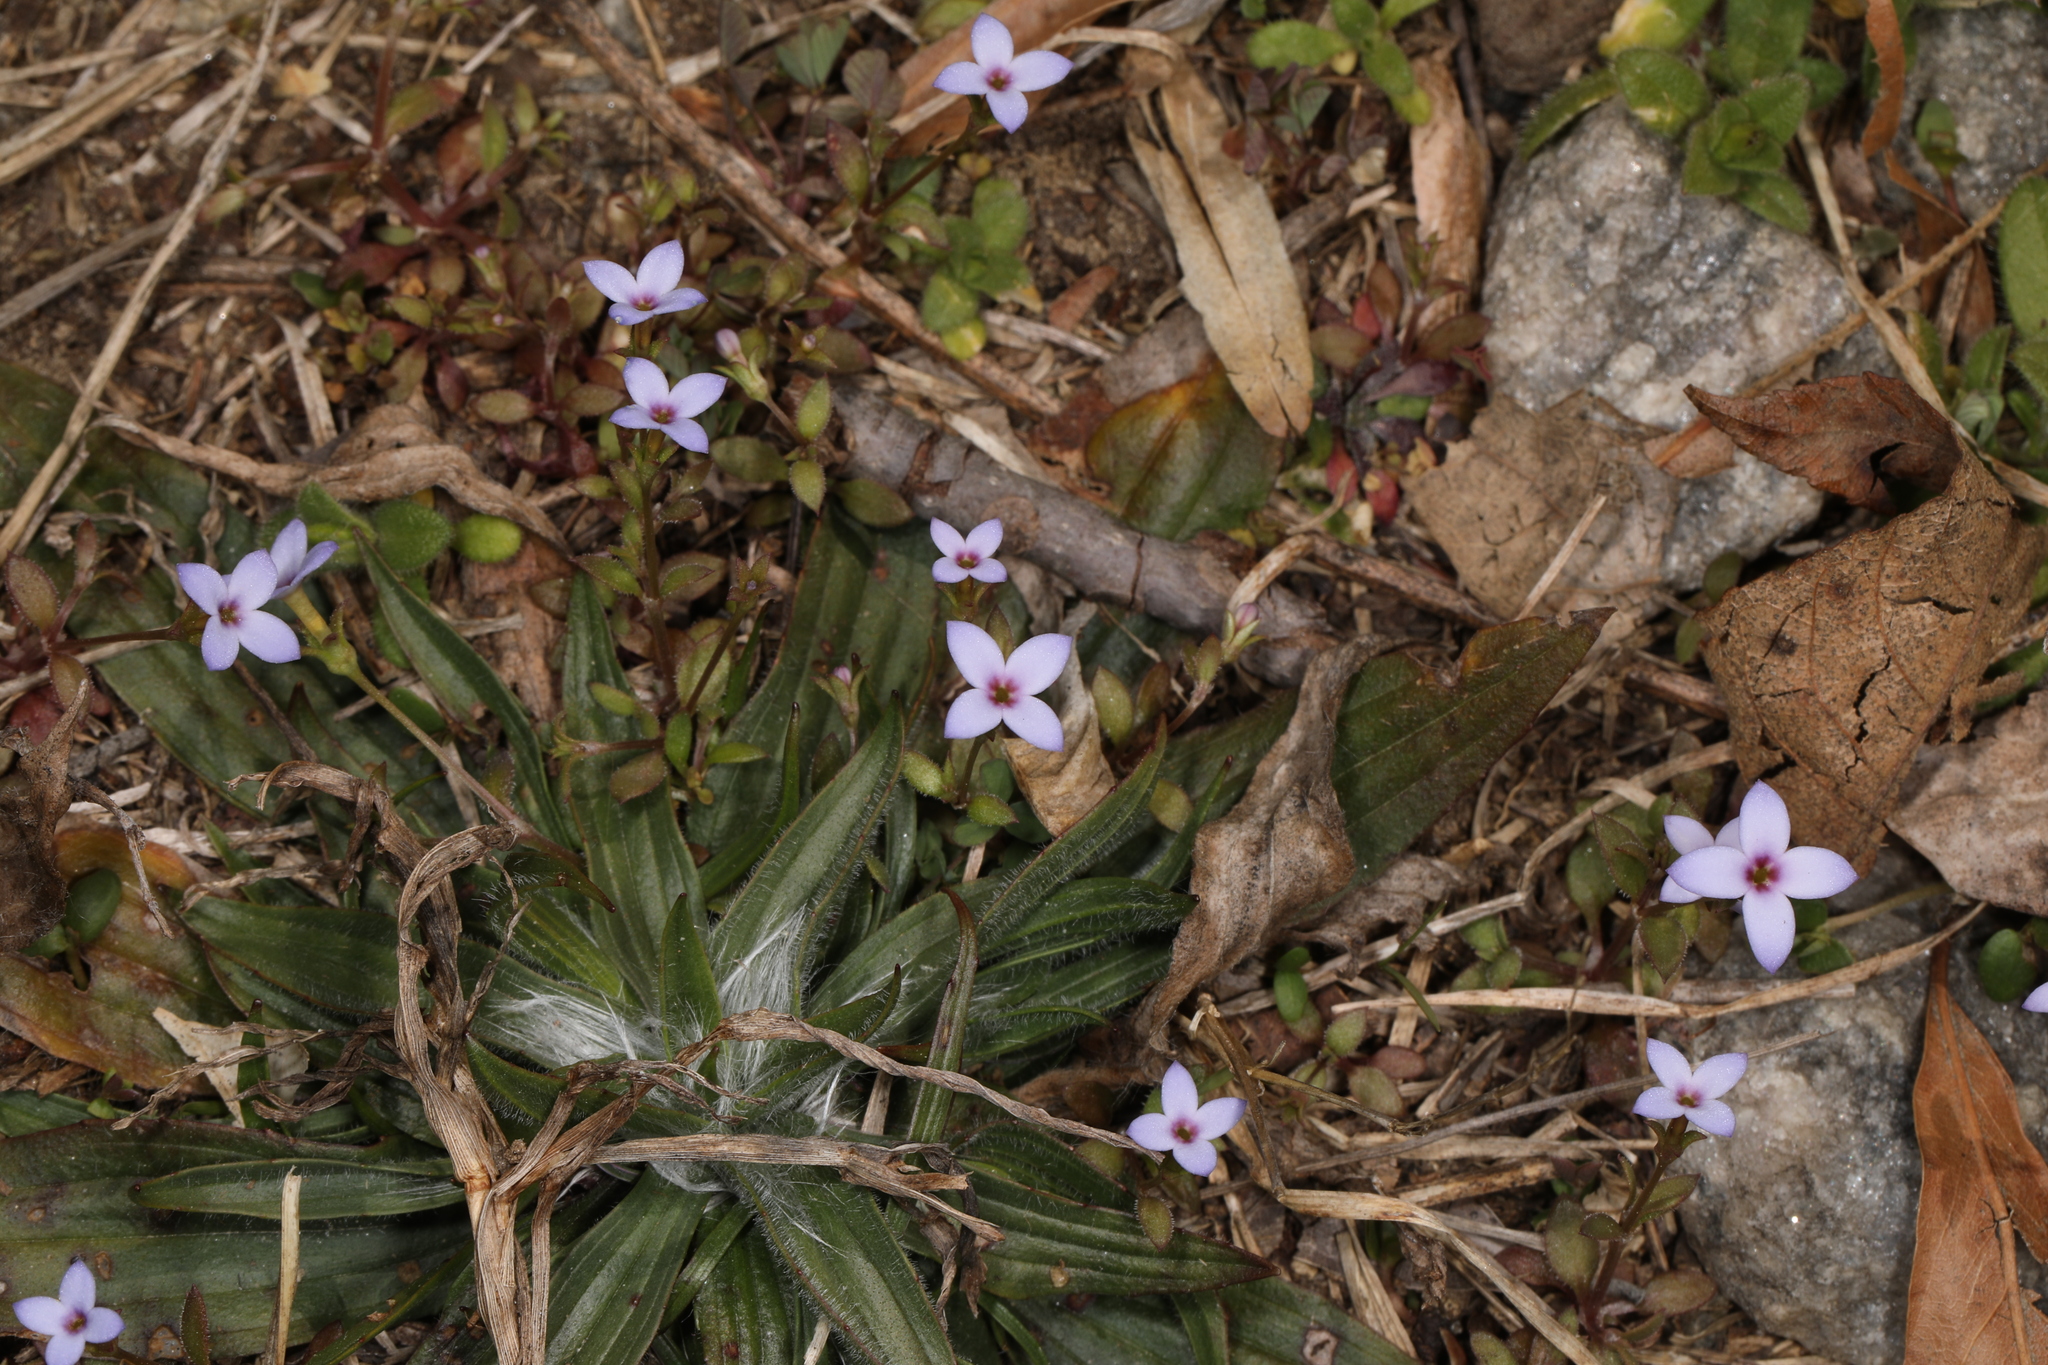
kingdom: Plantae
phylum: Tracheophyta
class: Magnoliopsida
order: Gentianales
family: Rubiaceae
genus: Houstonia
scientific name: Houstonia pusilla
